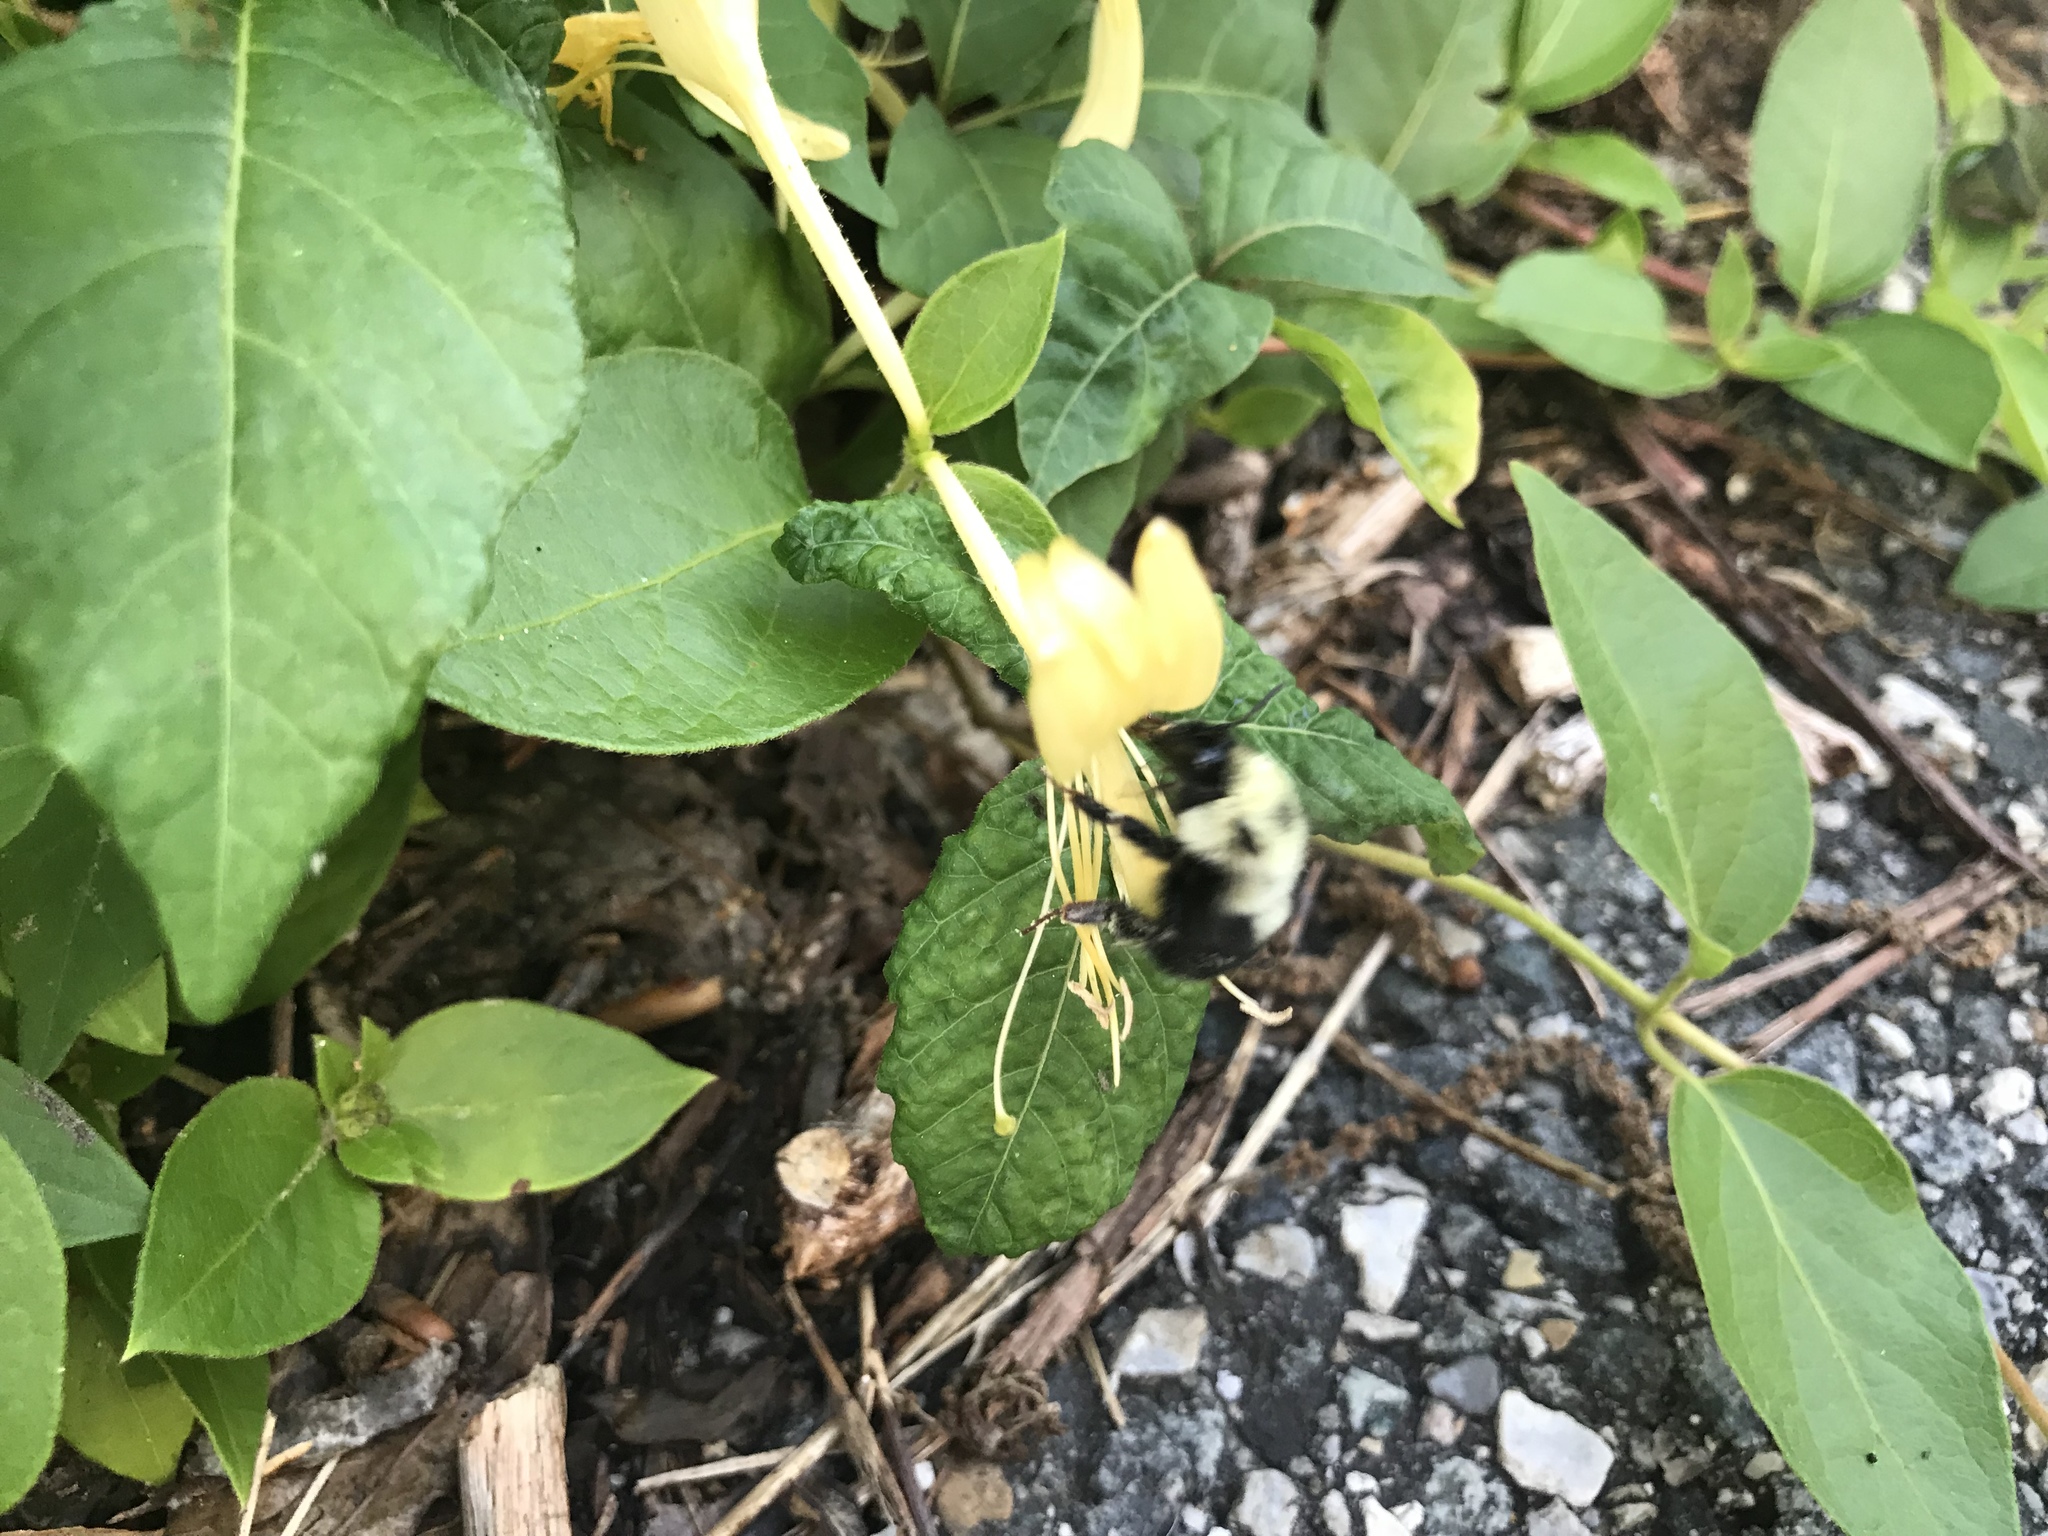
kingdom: Animalia
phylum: Arthropoda
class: Insecta
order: Hymenoptera
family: Apidae
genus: Bombus
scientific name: Bombus bimaculatus
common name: Two-spotted bumble bee
